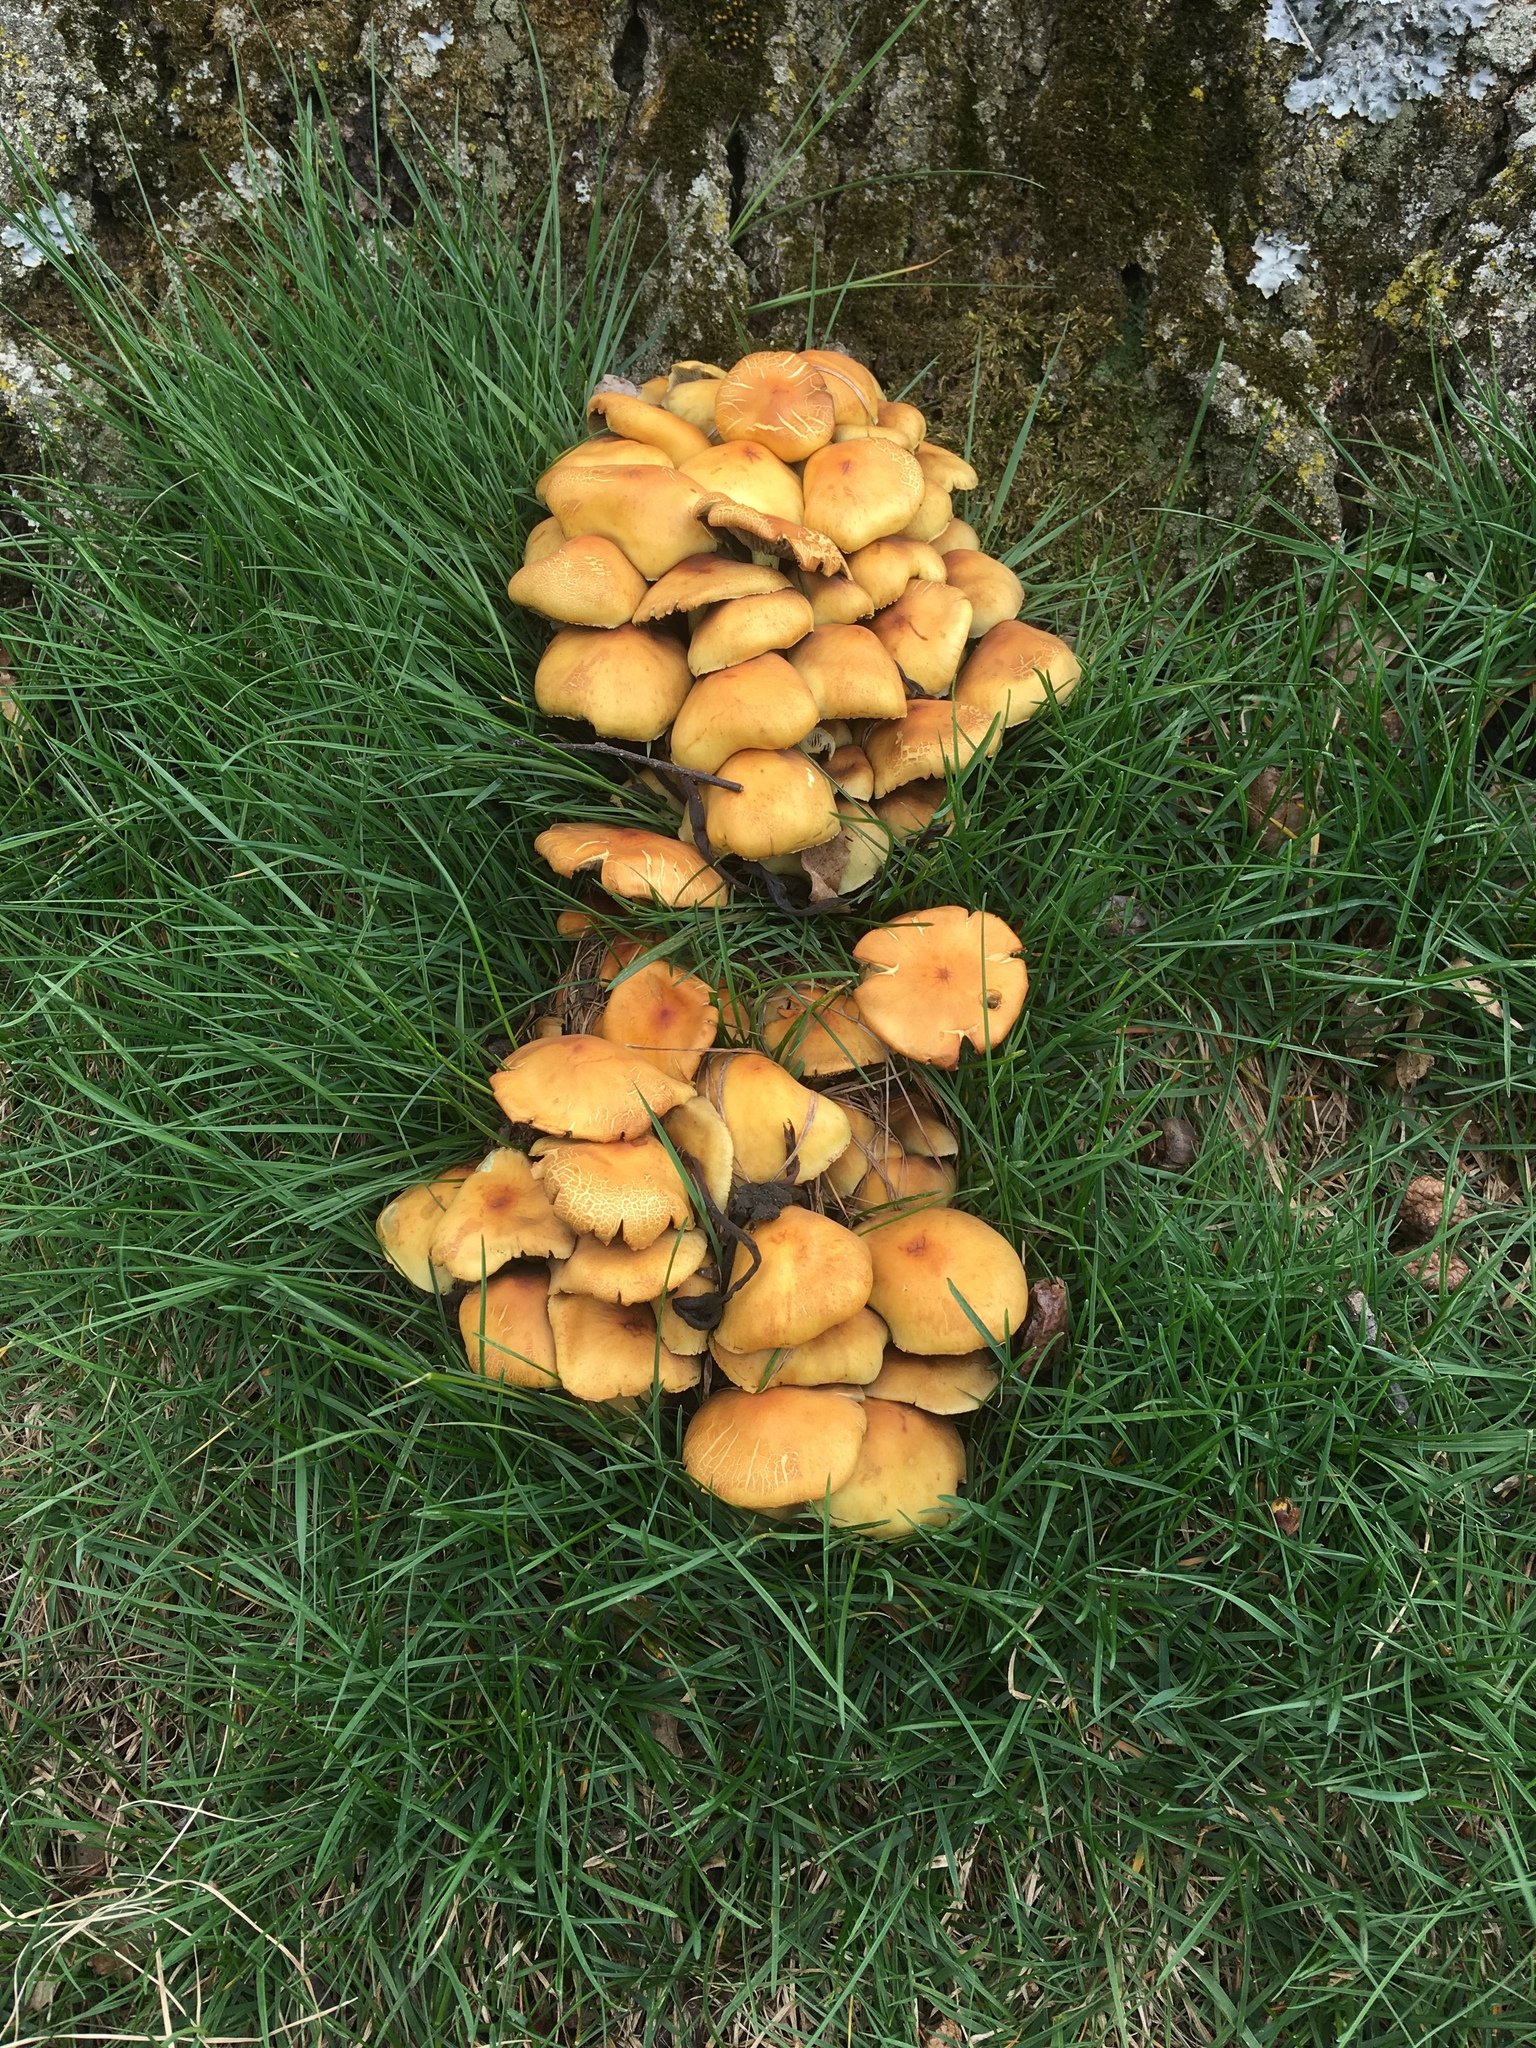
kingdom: Fungi
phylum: Basidiomycota
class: Agaricomycetes
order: Agaricales
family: Strophariaceae
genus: Hypholoma
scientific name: Hypholoma fasciculare
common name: Sulphur tuft
